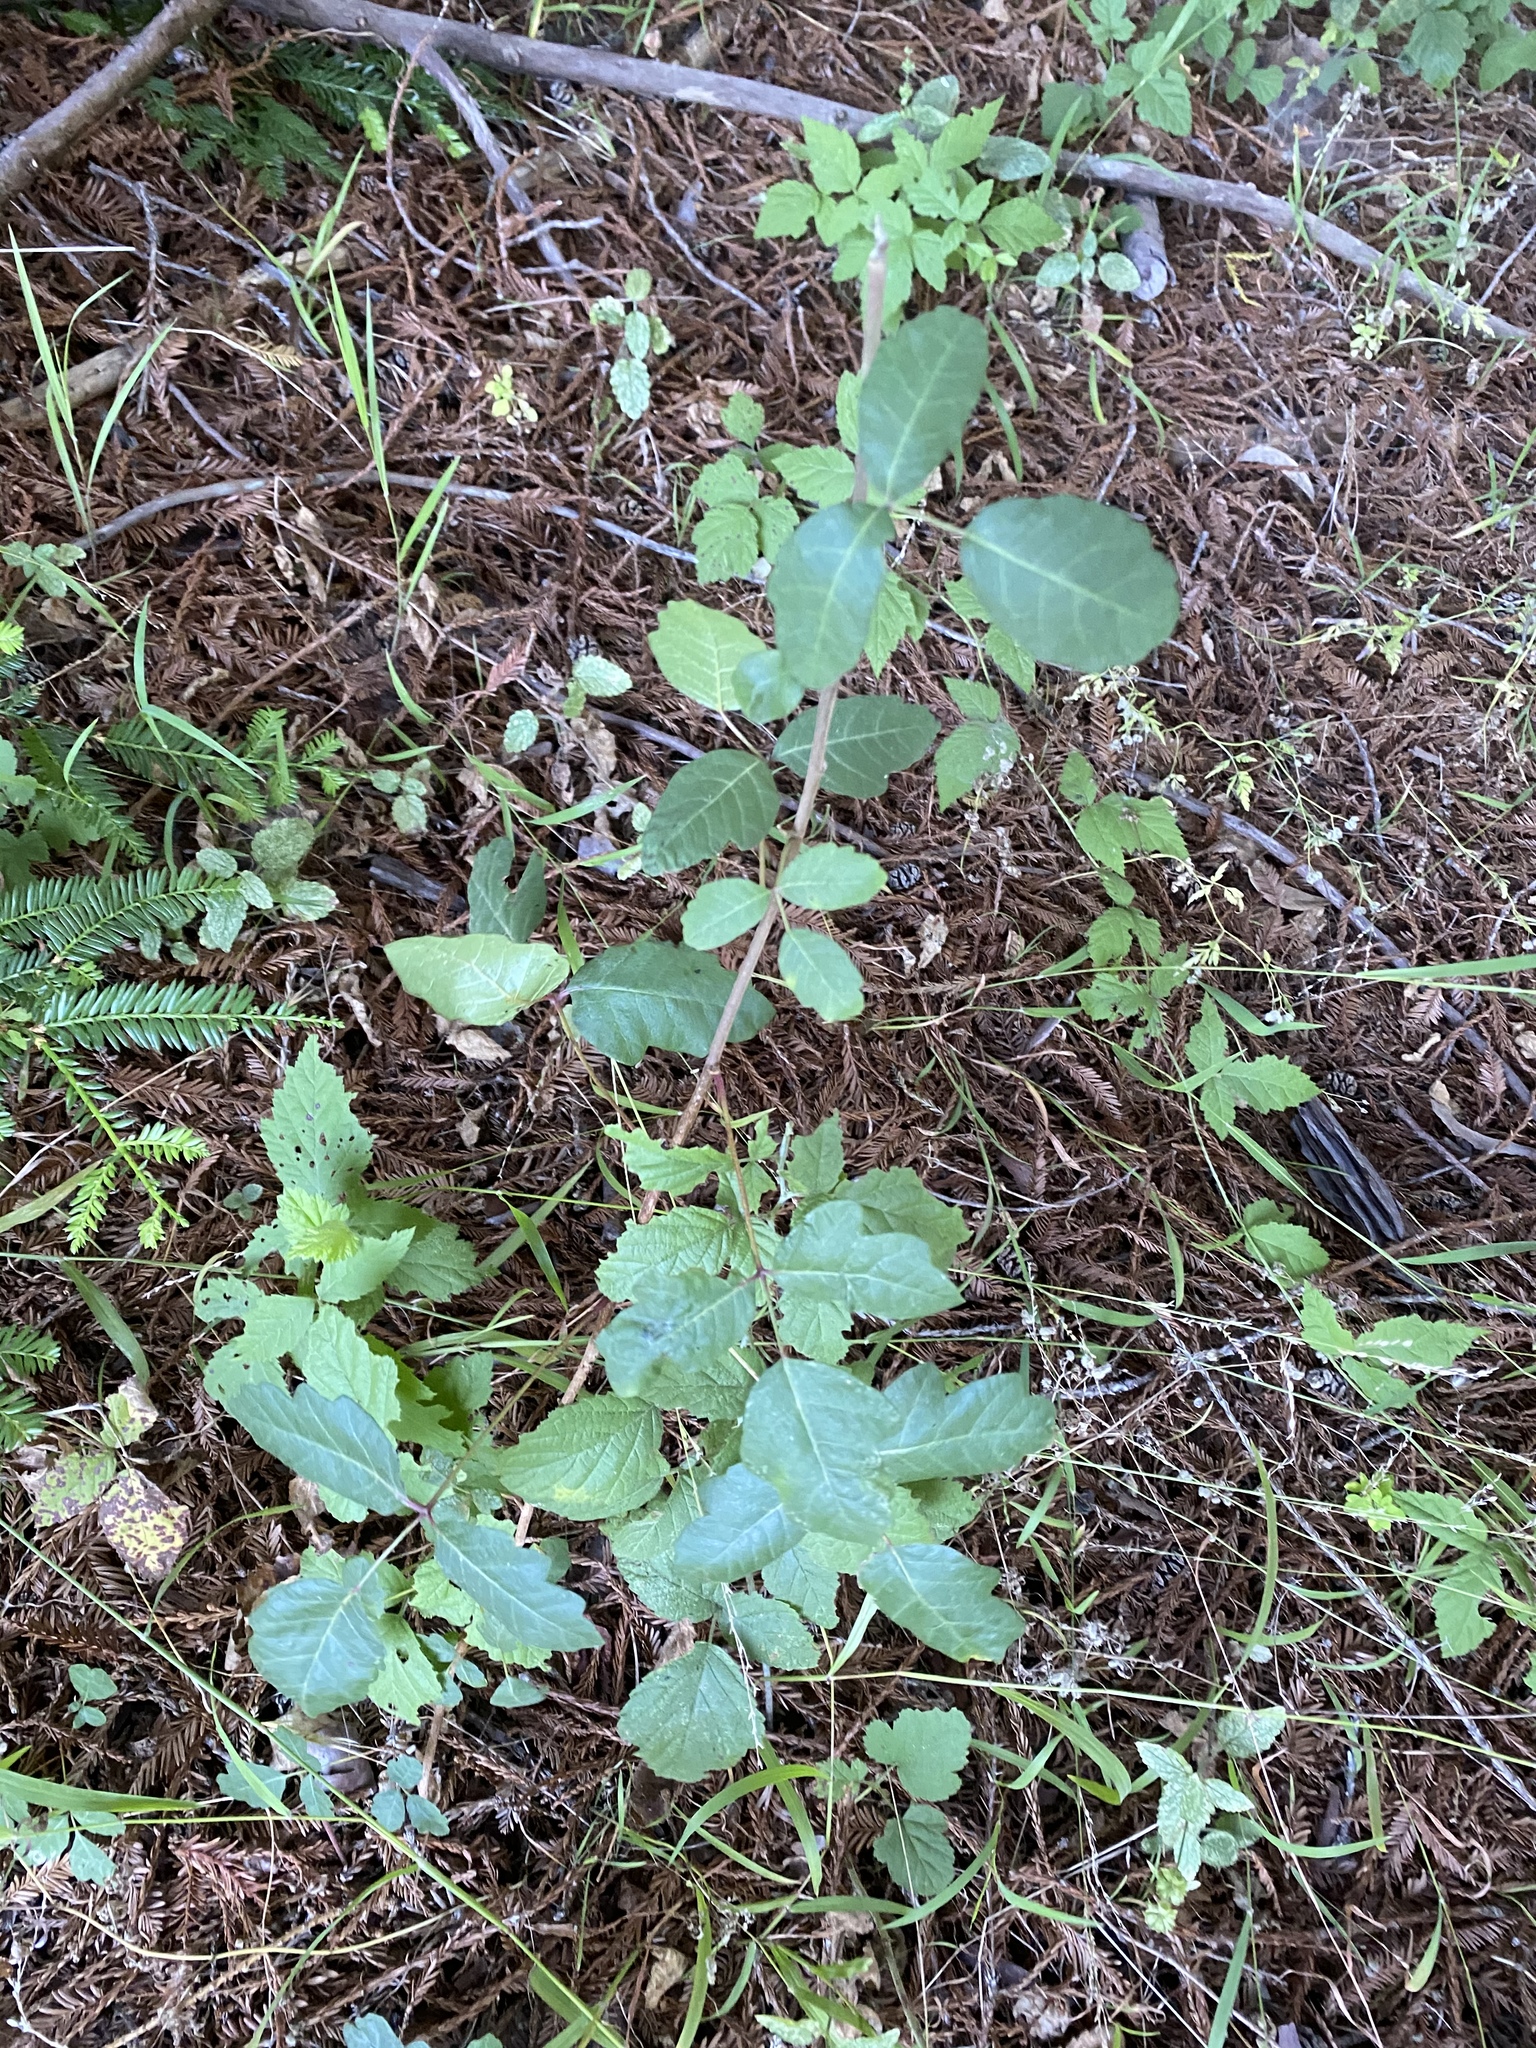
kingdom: Plantae
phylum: Tracheophyta
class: Magnoliopsida
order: Sapindales
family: Anacardiaceae
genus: Toxicodendron
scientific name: Toxicodendron diversilobum
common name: Pacific poison-oak
